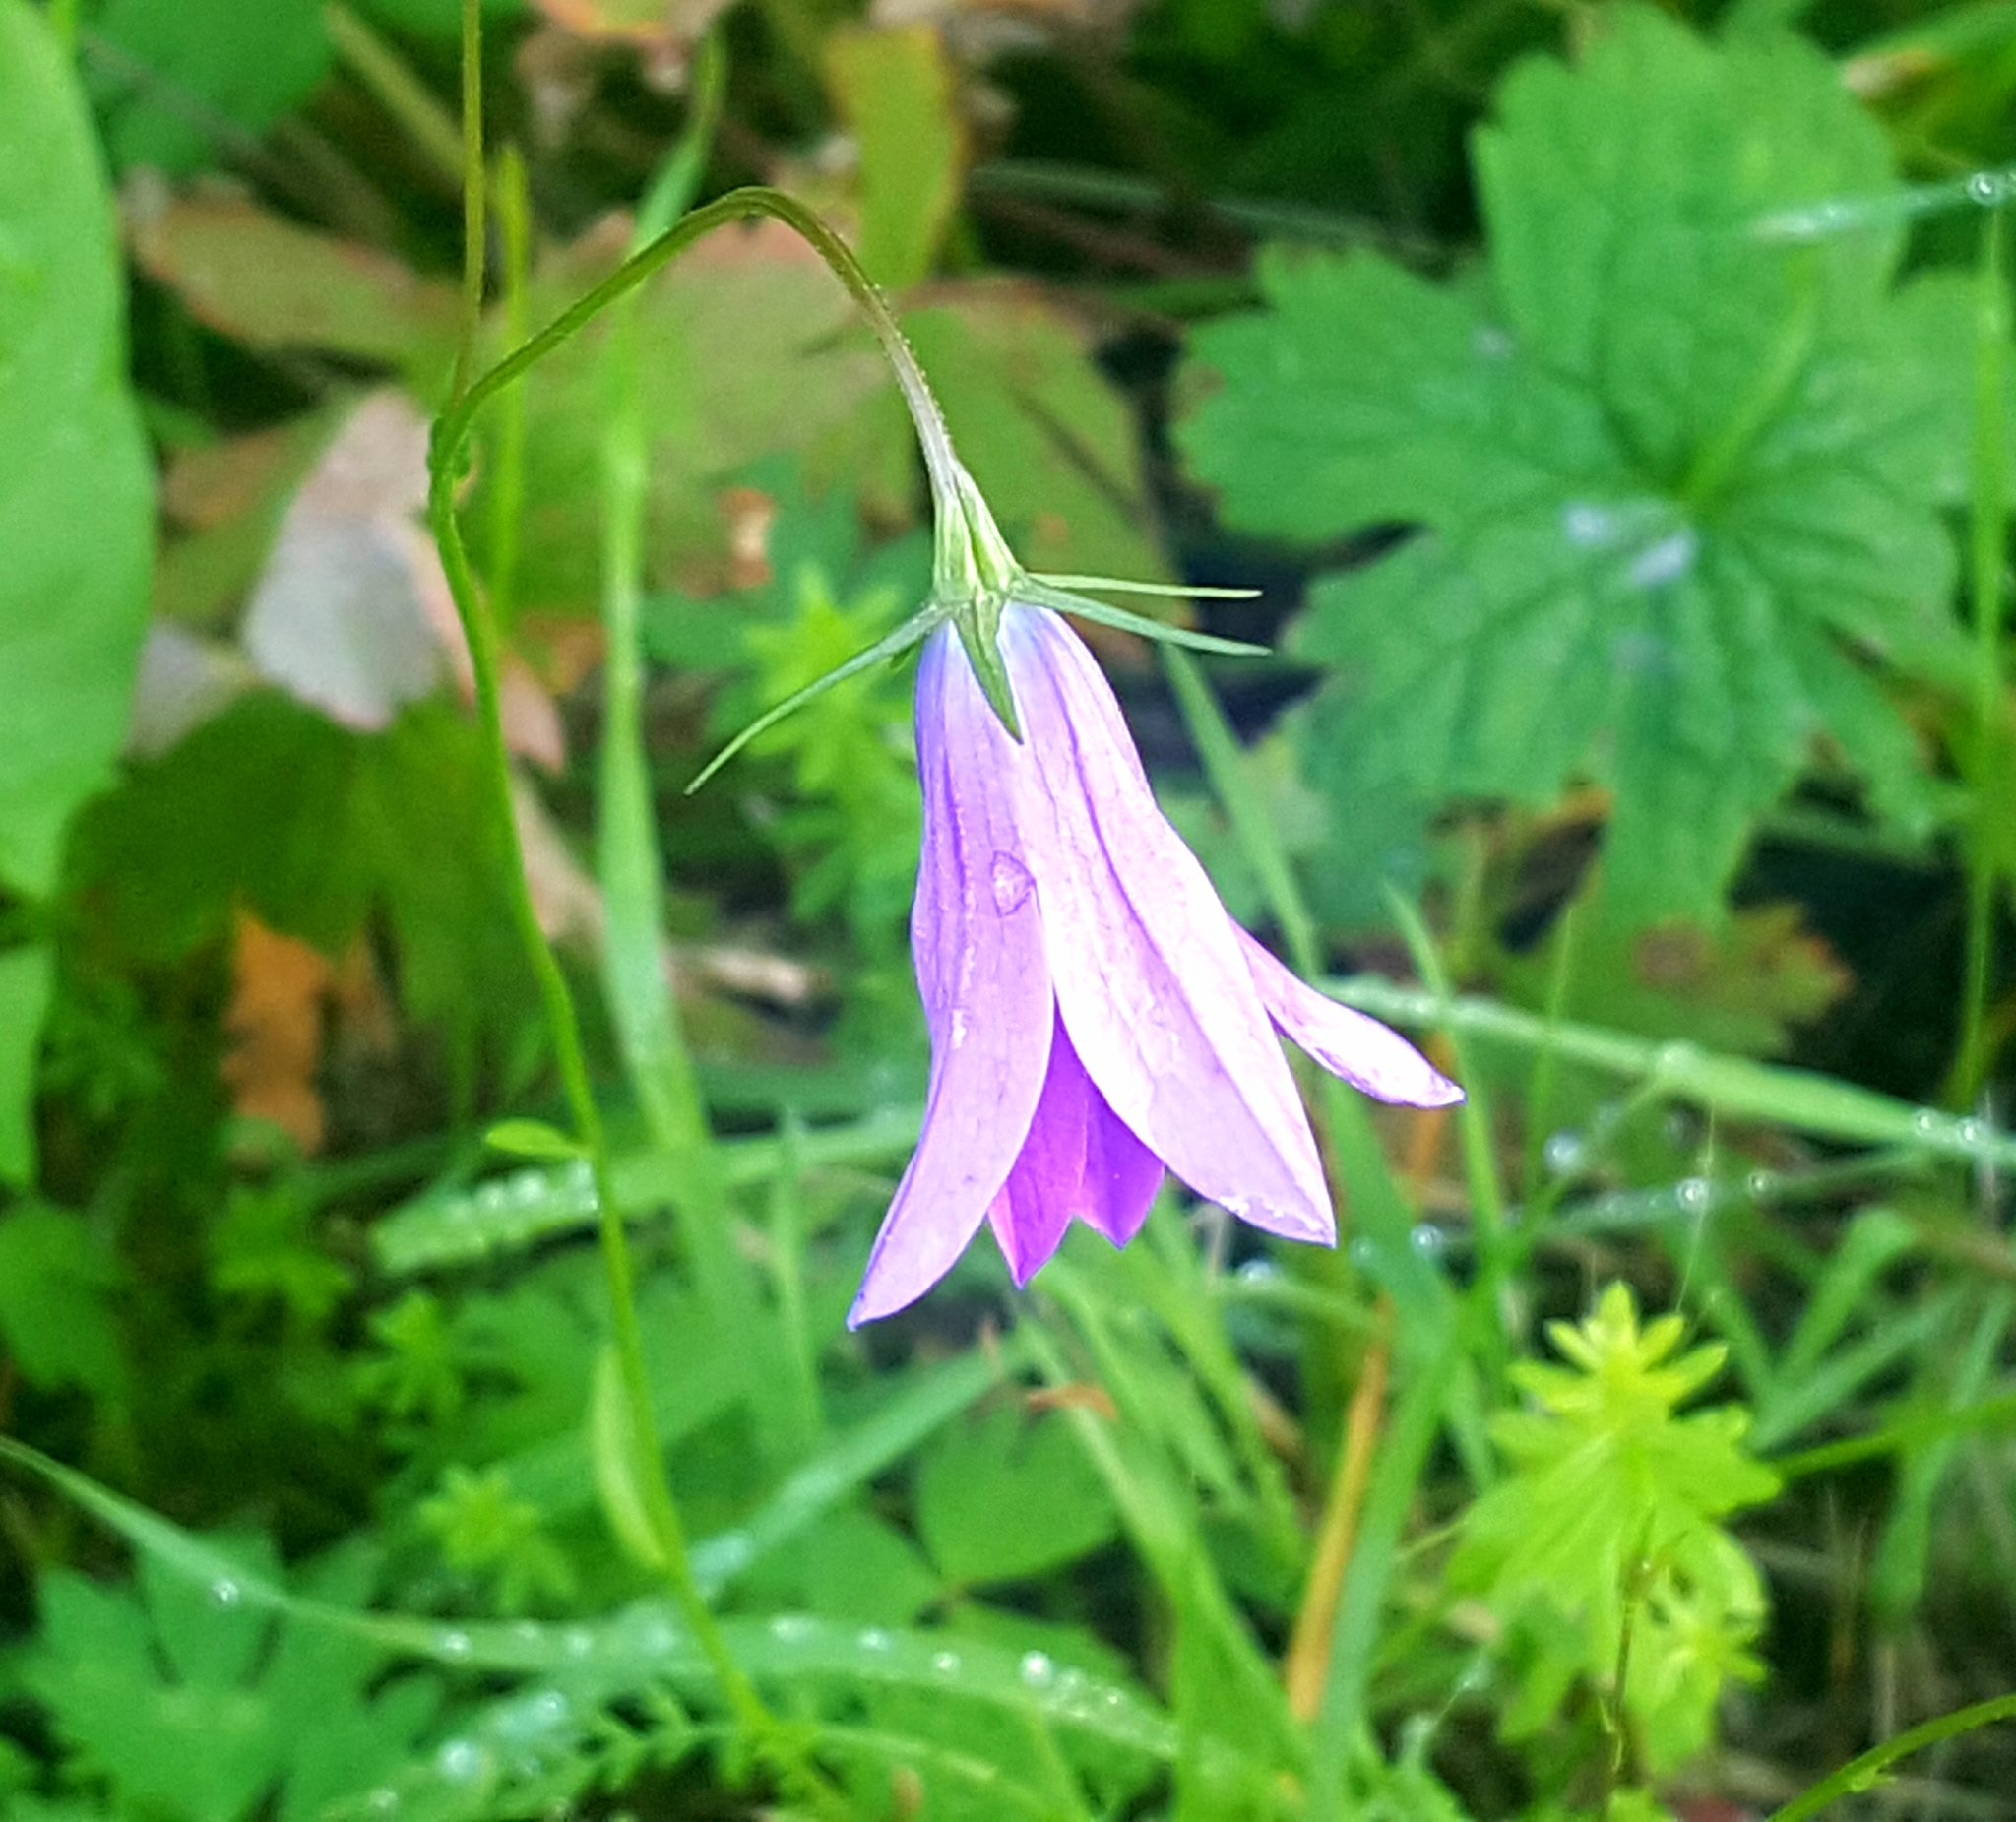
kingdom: Plantae
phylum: Tracheophyta
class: Magnoliopsida
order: Asterales
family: Campanulaceae
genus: Campanula
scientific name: Campanula patula
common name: Spreading bellflower
